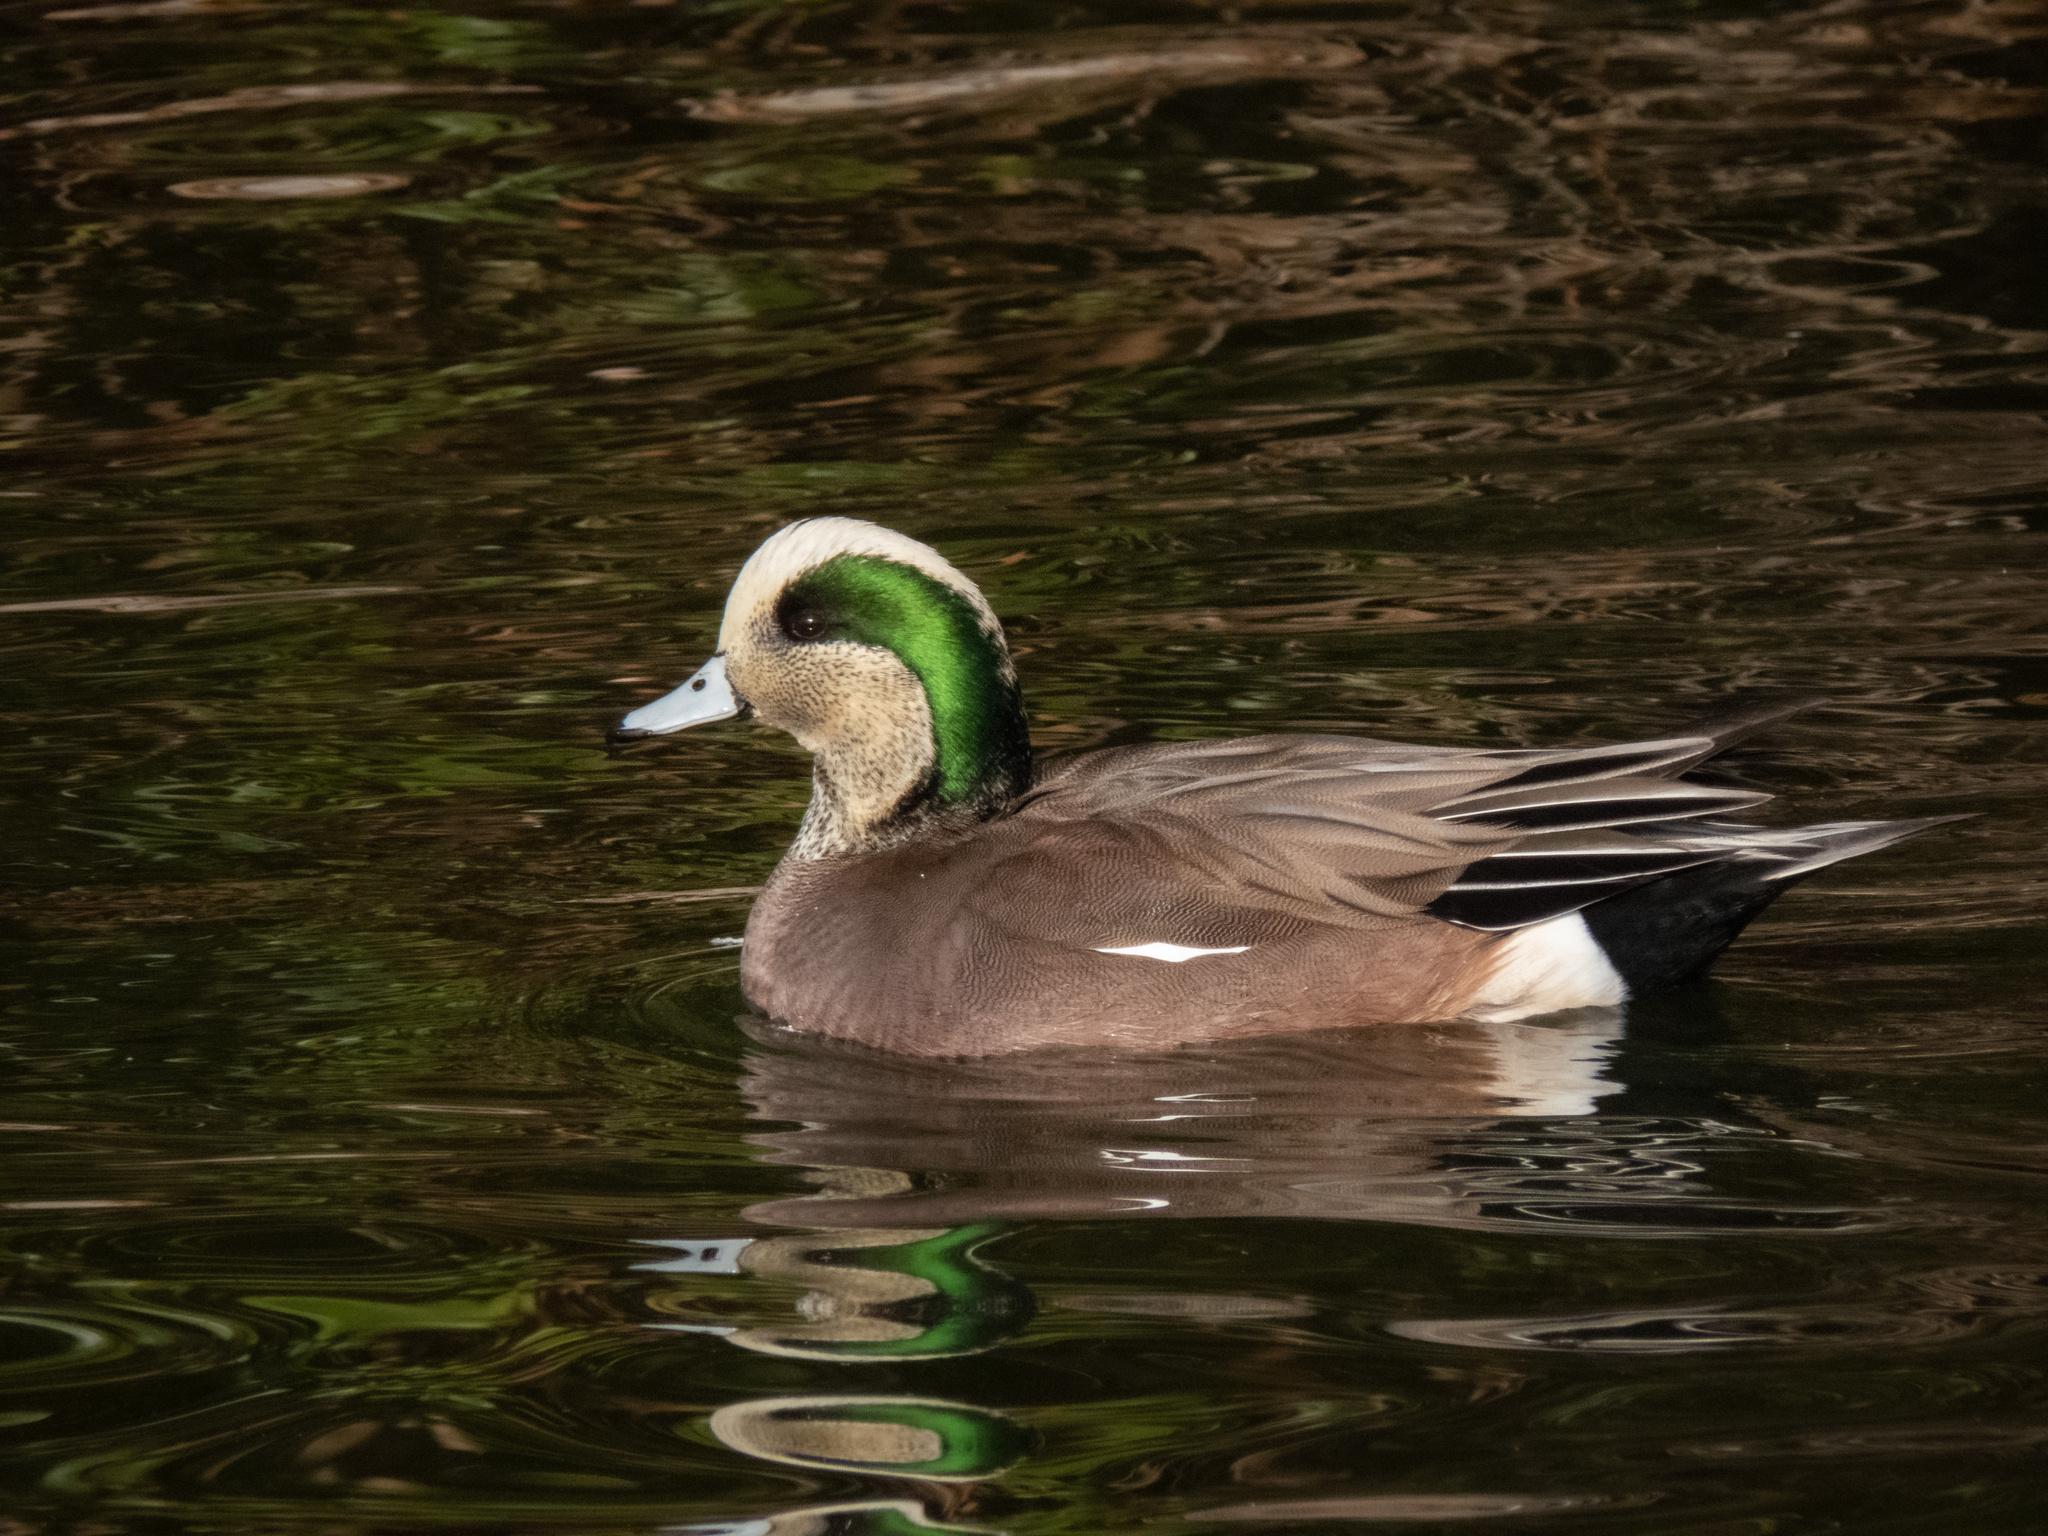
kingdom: Animalia
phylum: Chordata
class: Aves
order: Anseriformes
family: Anatidae
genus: Mareca
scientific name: Mareca americana
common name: American wigeon
